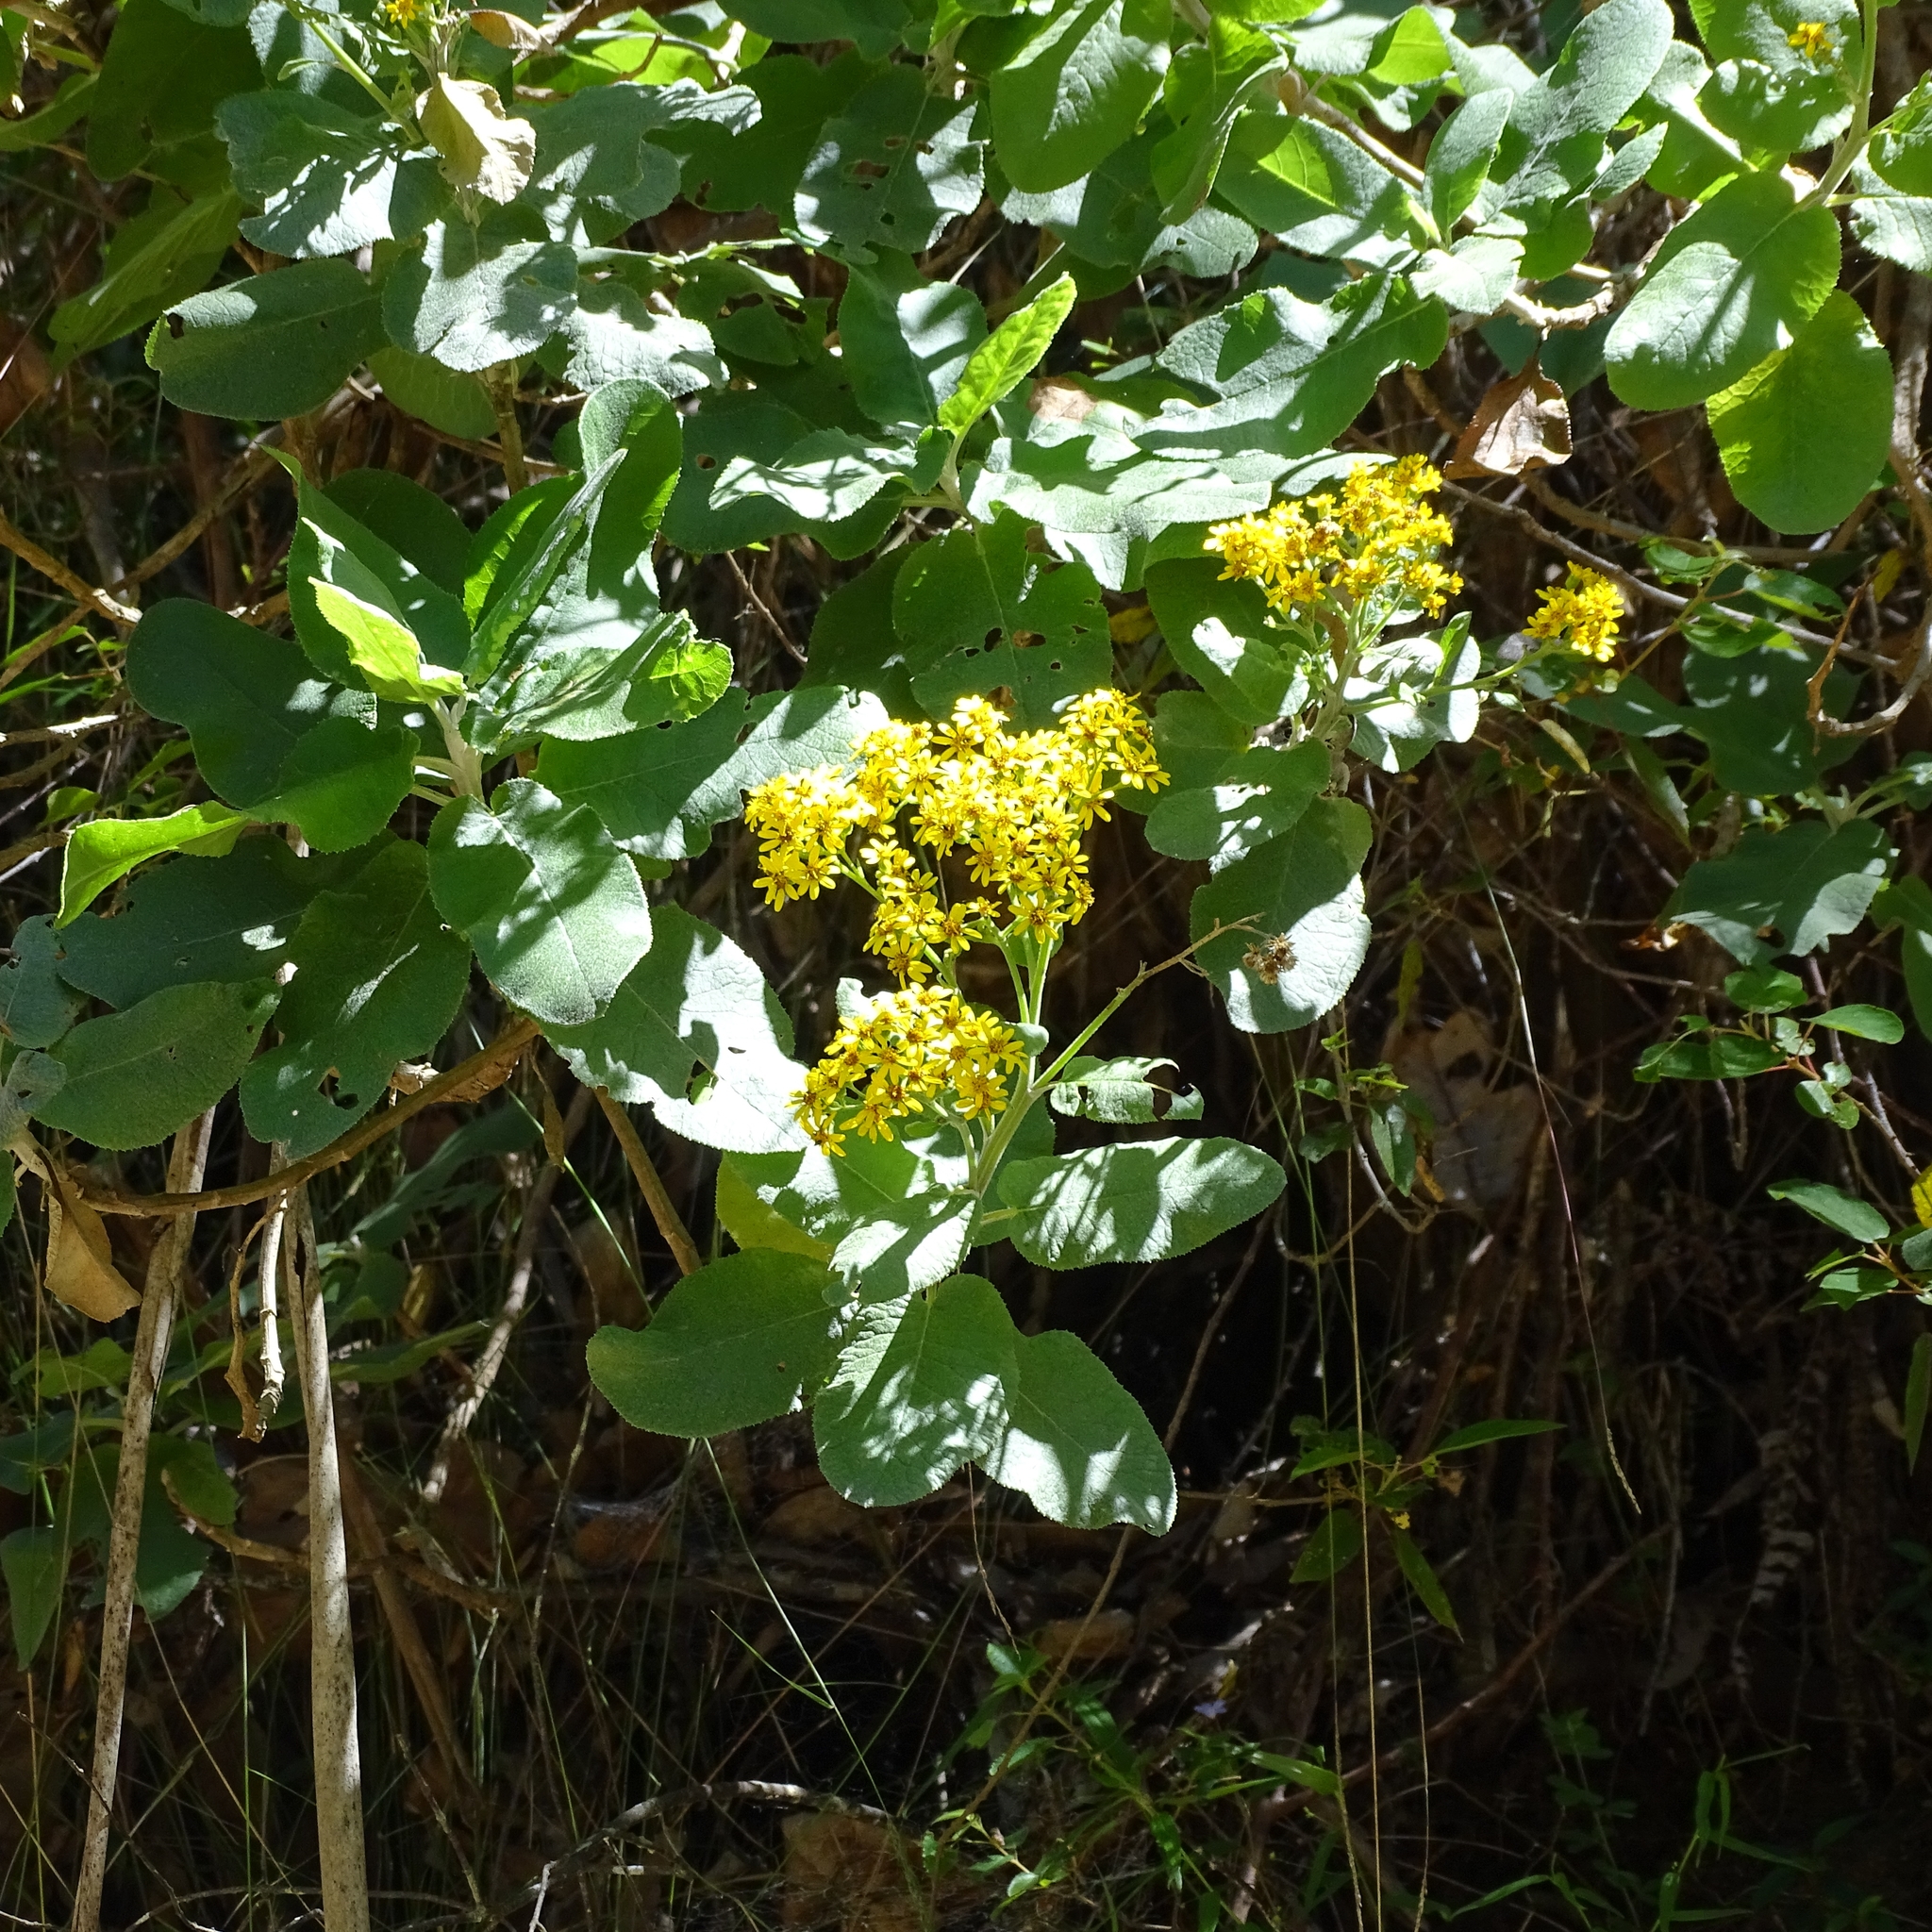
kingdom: Plantae
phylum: Tracheophyta
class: Magnoliopsida
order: Asterales
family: Asteraceae
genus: Acrisione
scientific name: Acrisione denticulata
